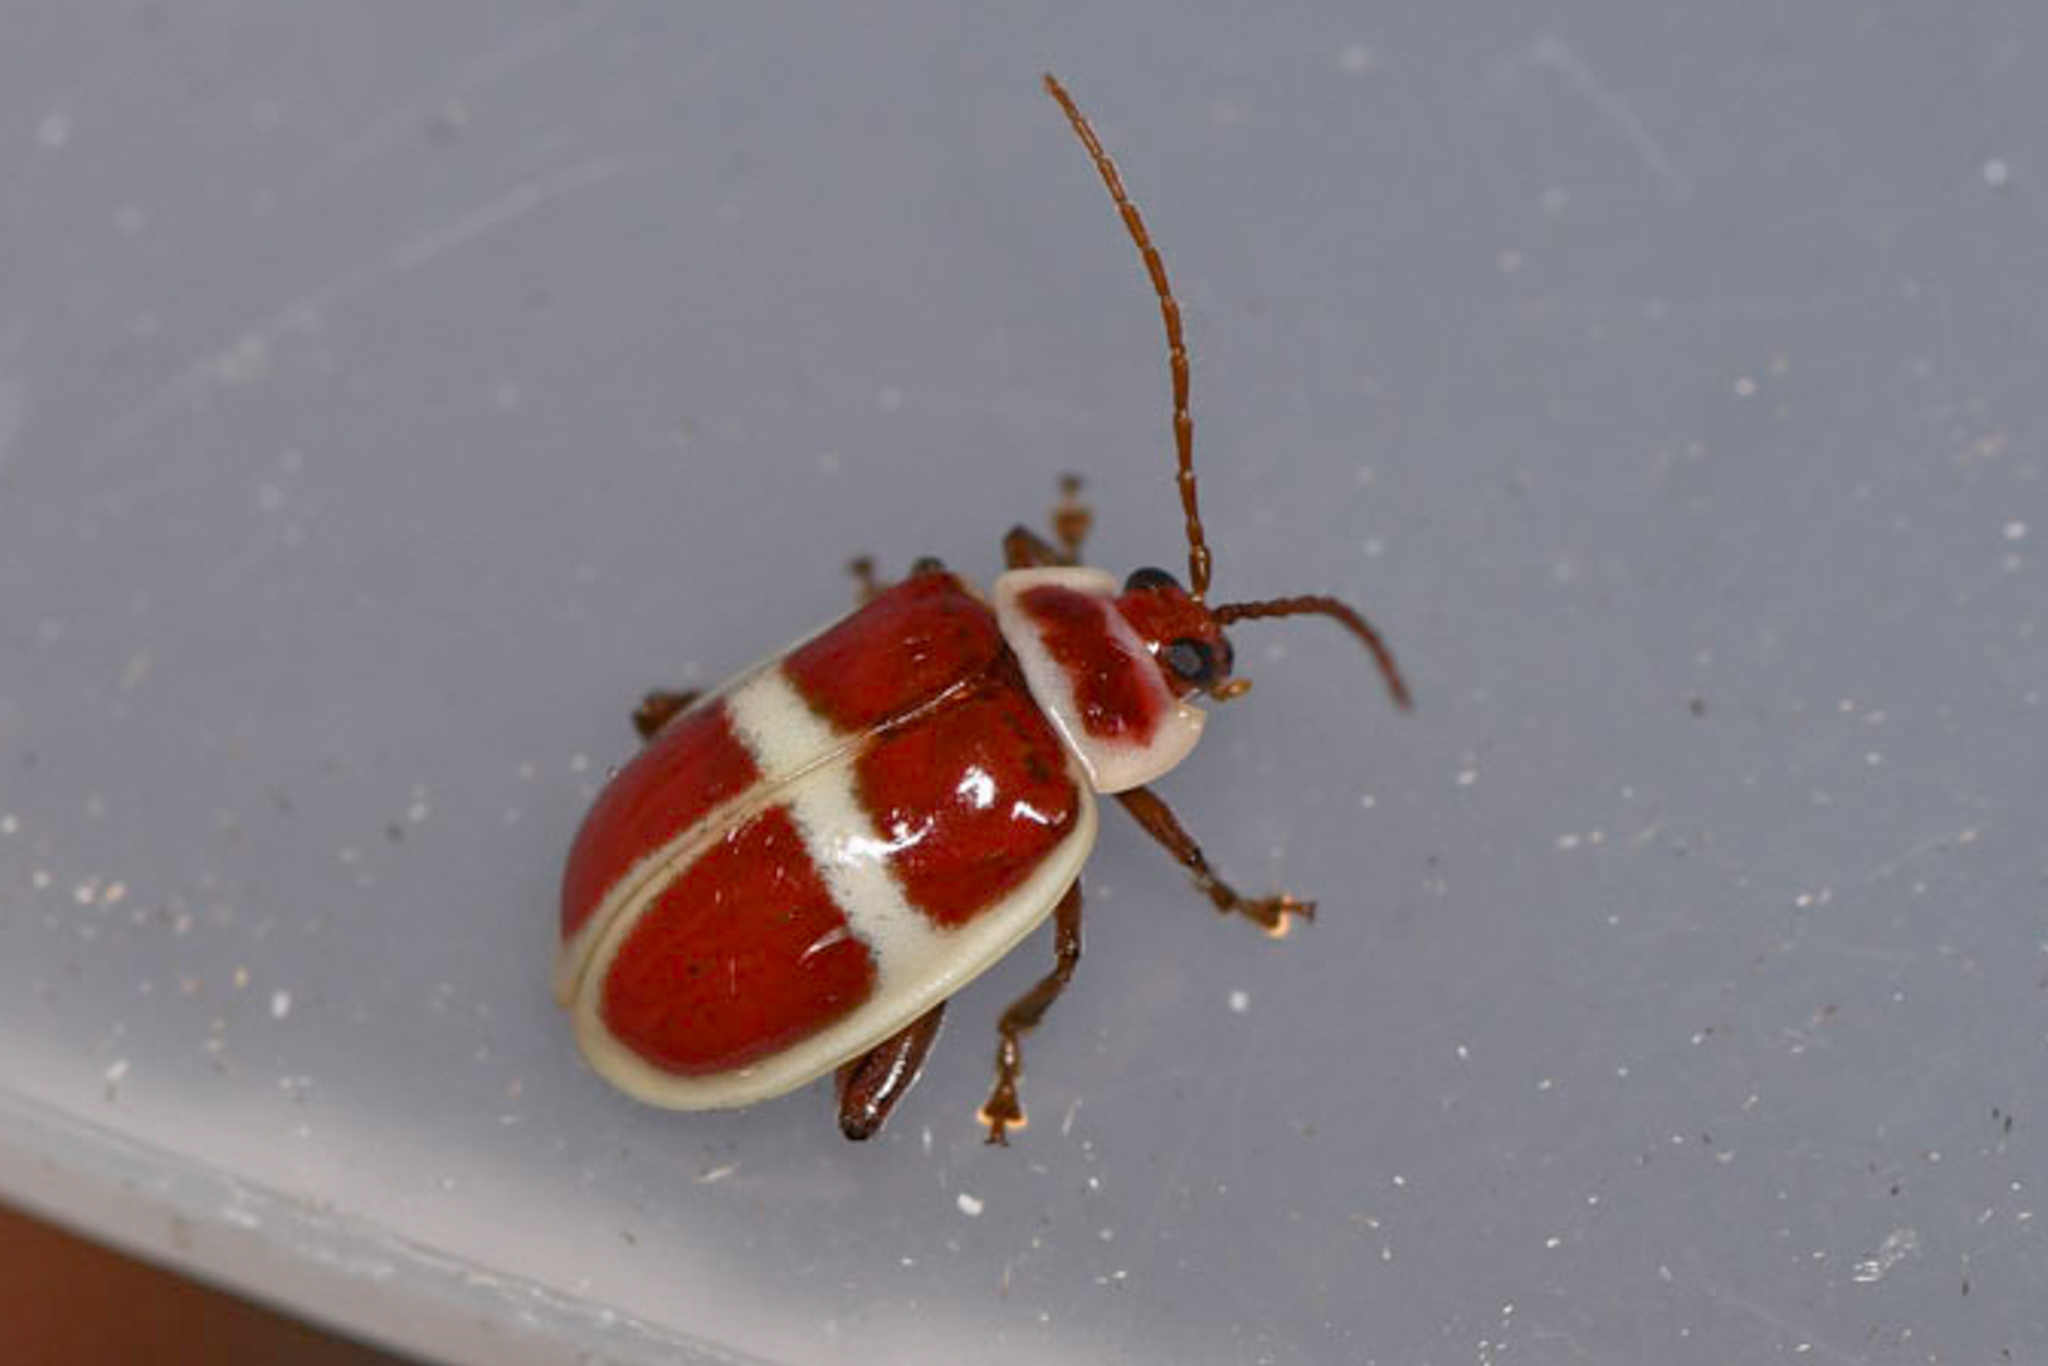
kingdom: Animalia
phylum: Arthropoda
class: Insecta
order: Coleoptera
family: Chrysomelidae
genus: Asphaera
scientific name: Asphaera discicollis
